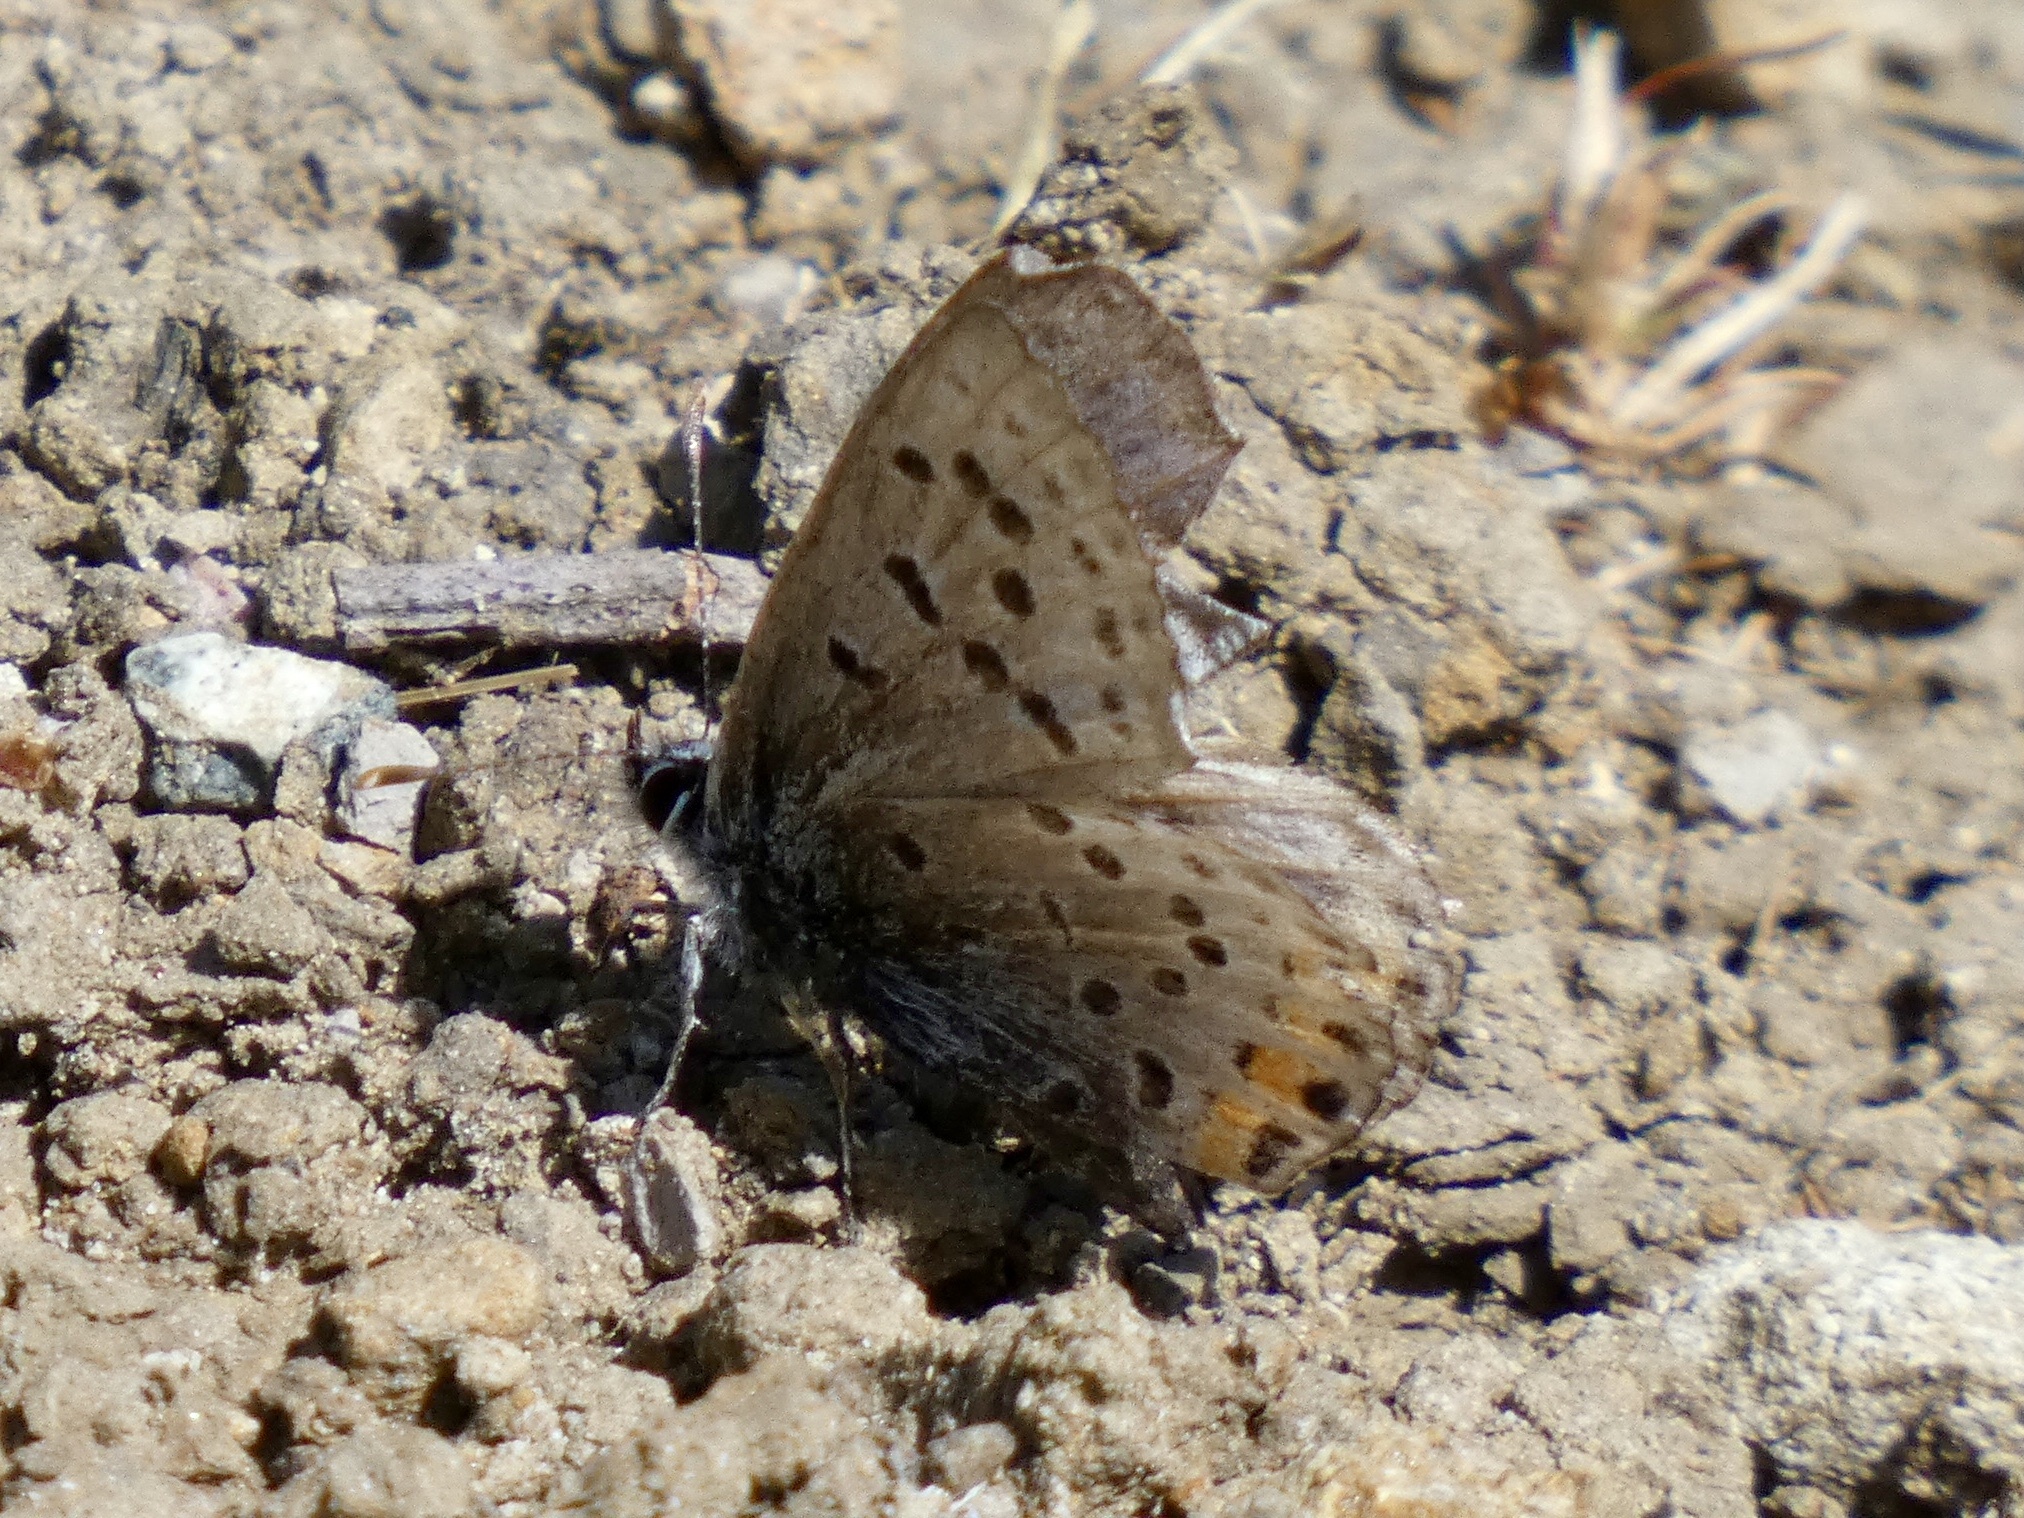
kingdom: Animalia
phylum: Arthropoda
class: Insecta
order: Lepidoptera
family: Lycaenidae
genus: Icaricia
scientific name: Icaricia acmon
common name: Acmon blue
